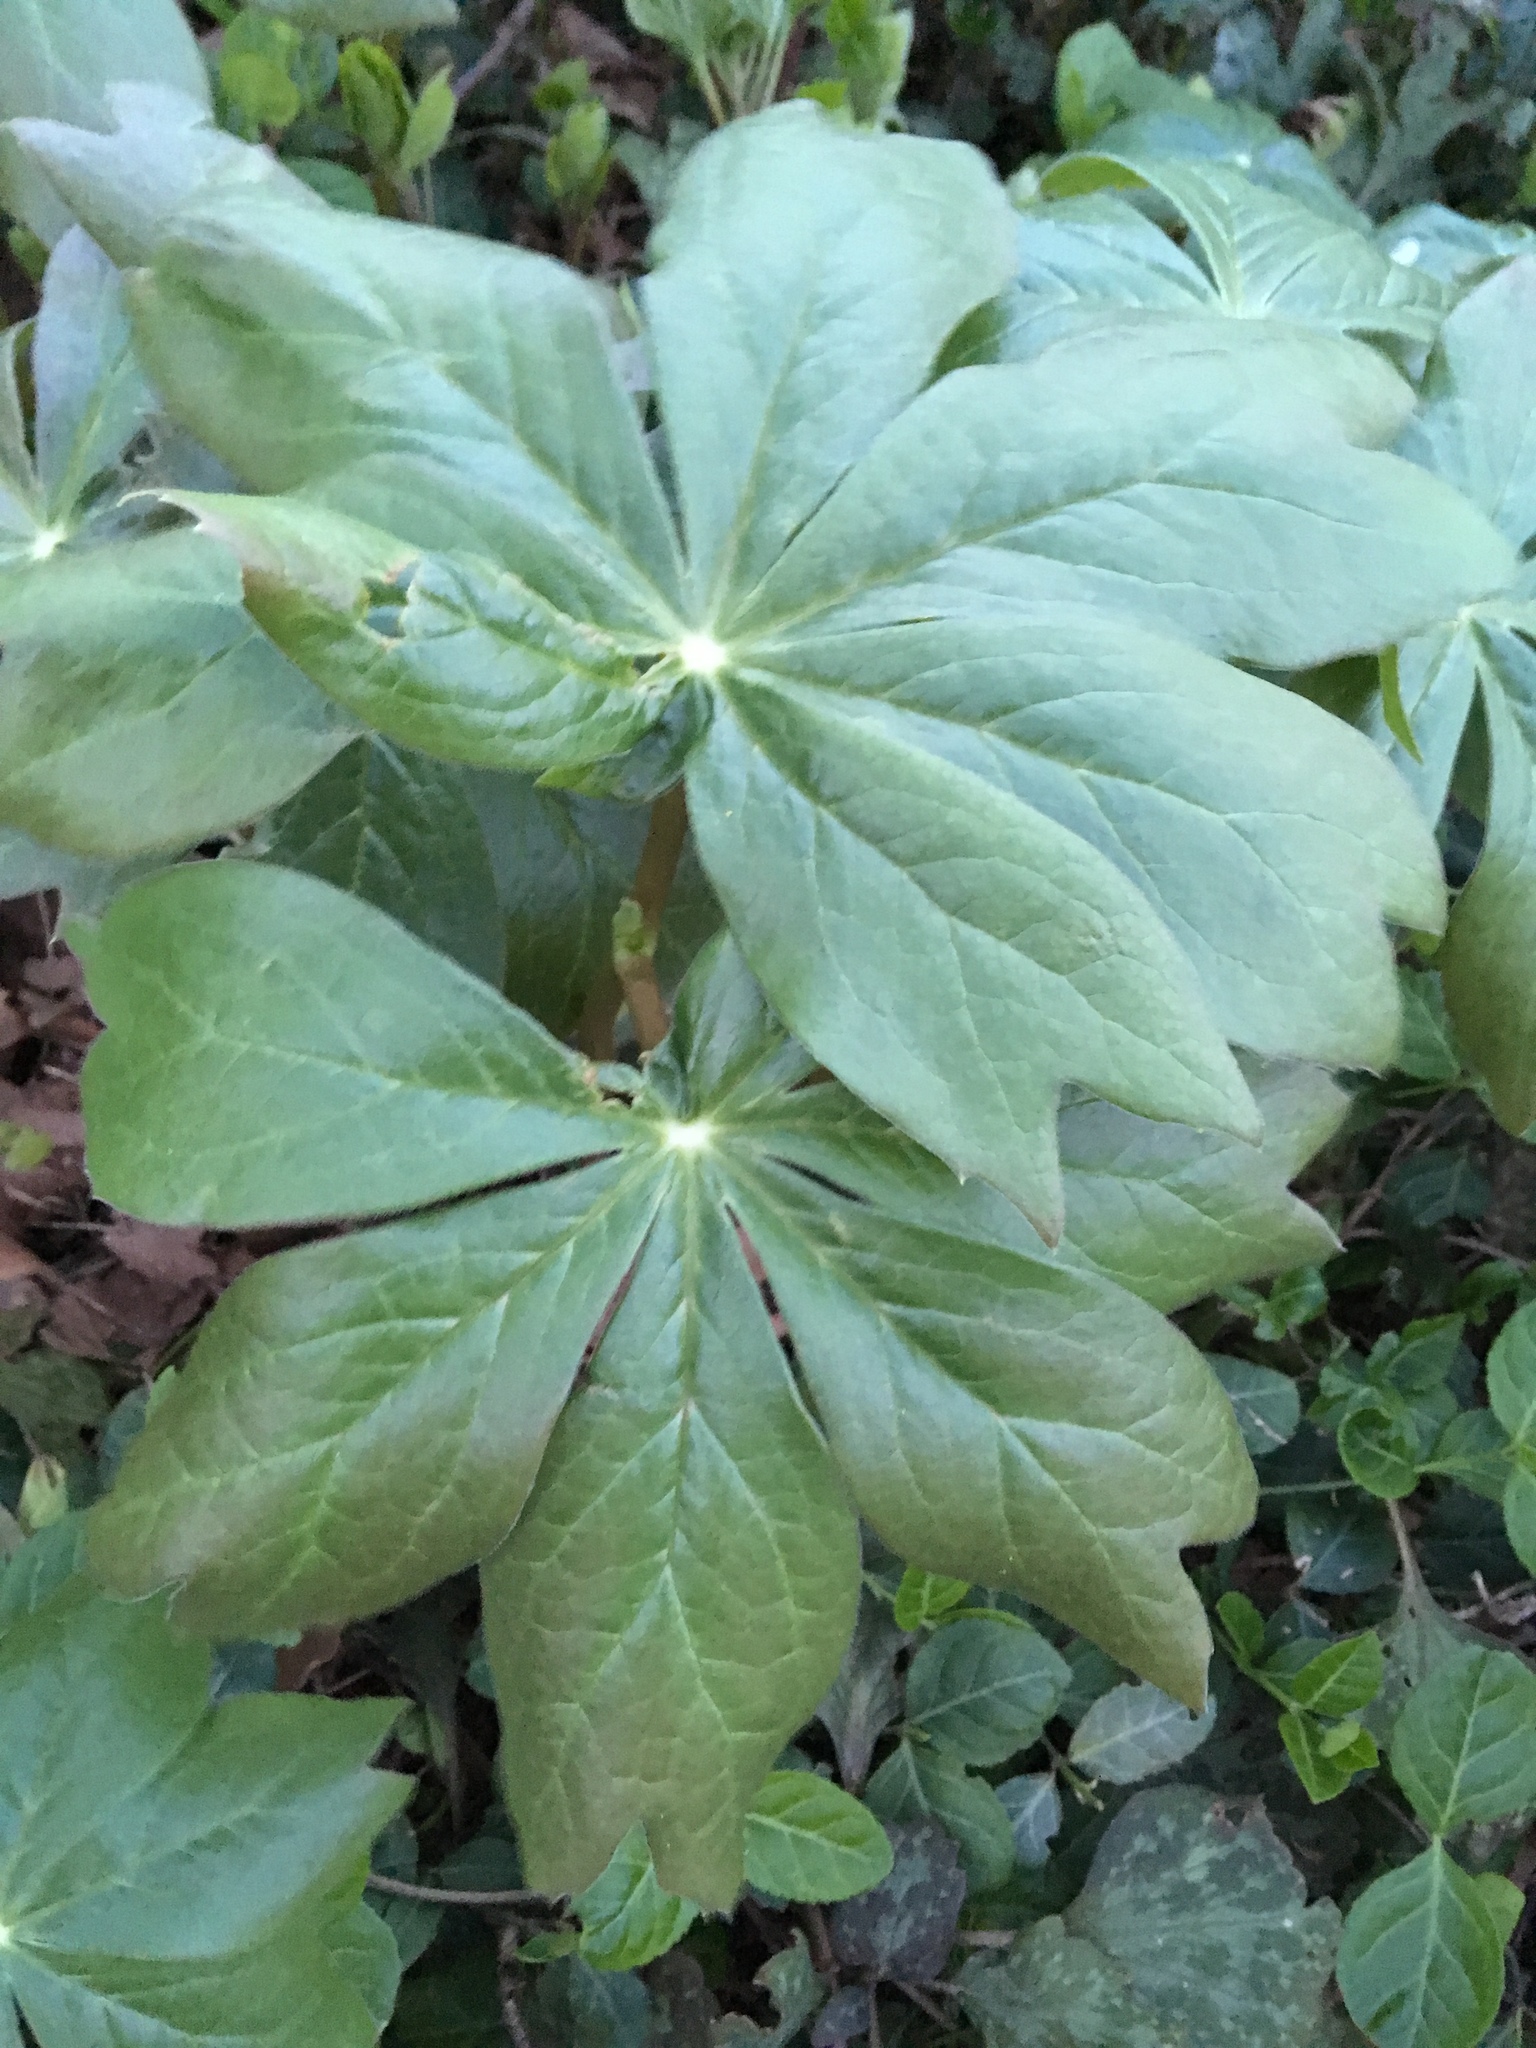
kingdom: Plantae
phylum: Tracheophyta
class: Magnoliopsida
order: Ranunculales
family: Berberidaceae
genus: Podophyllum
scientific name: Podophyllum peltatum
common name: Wild mandrake
